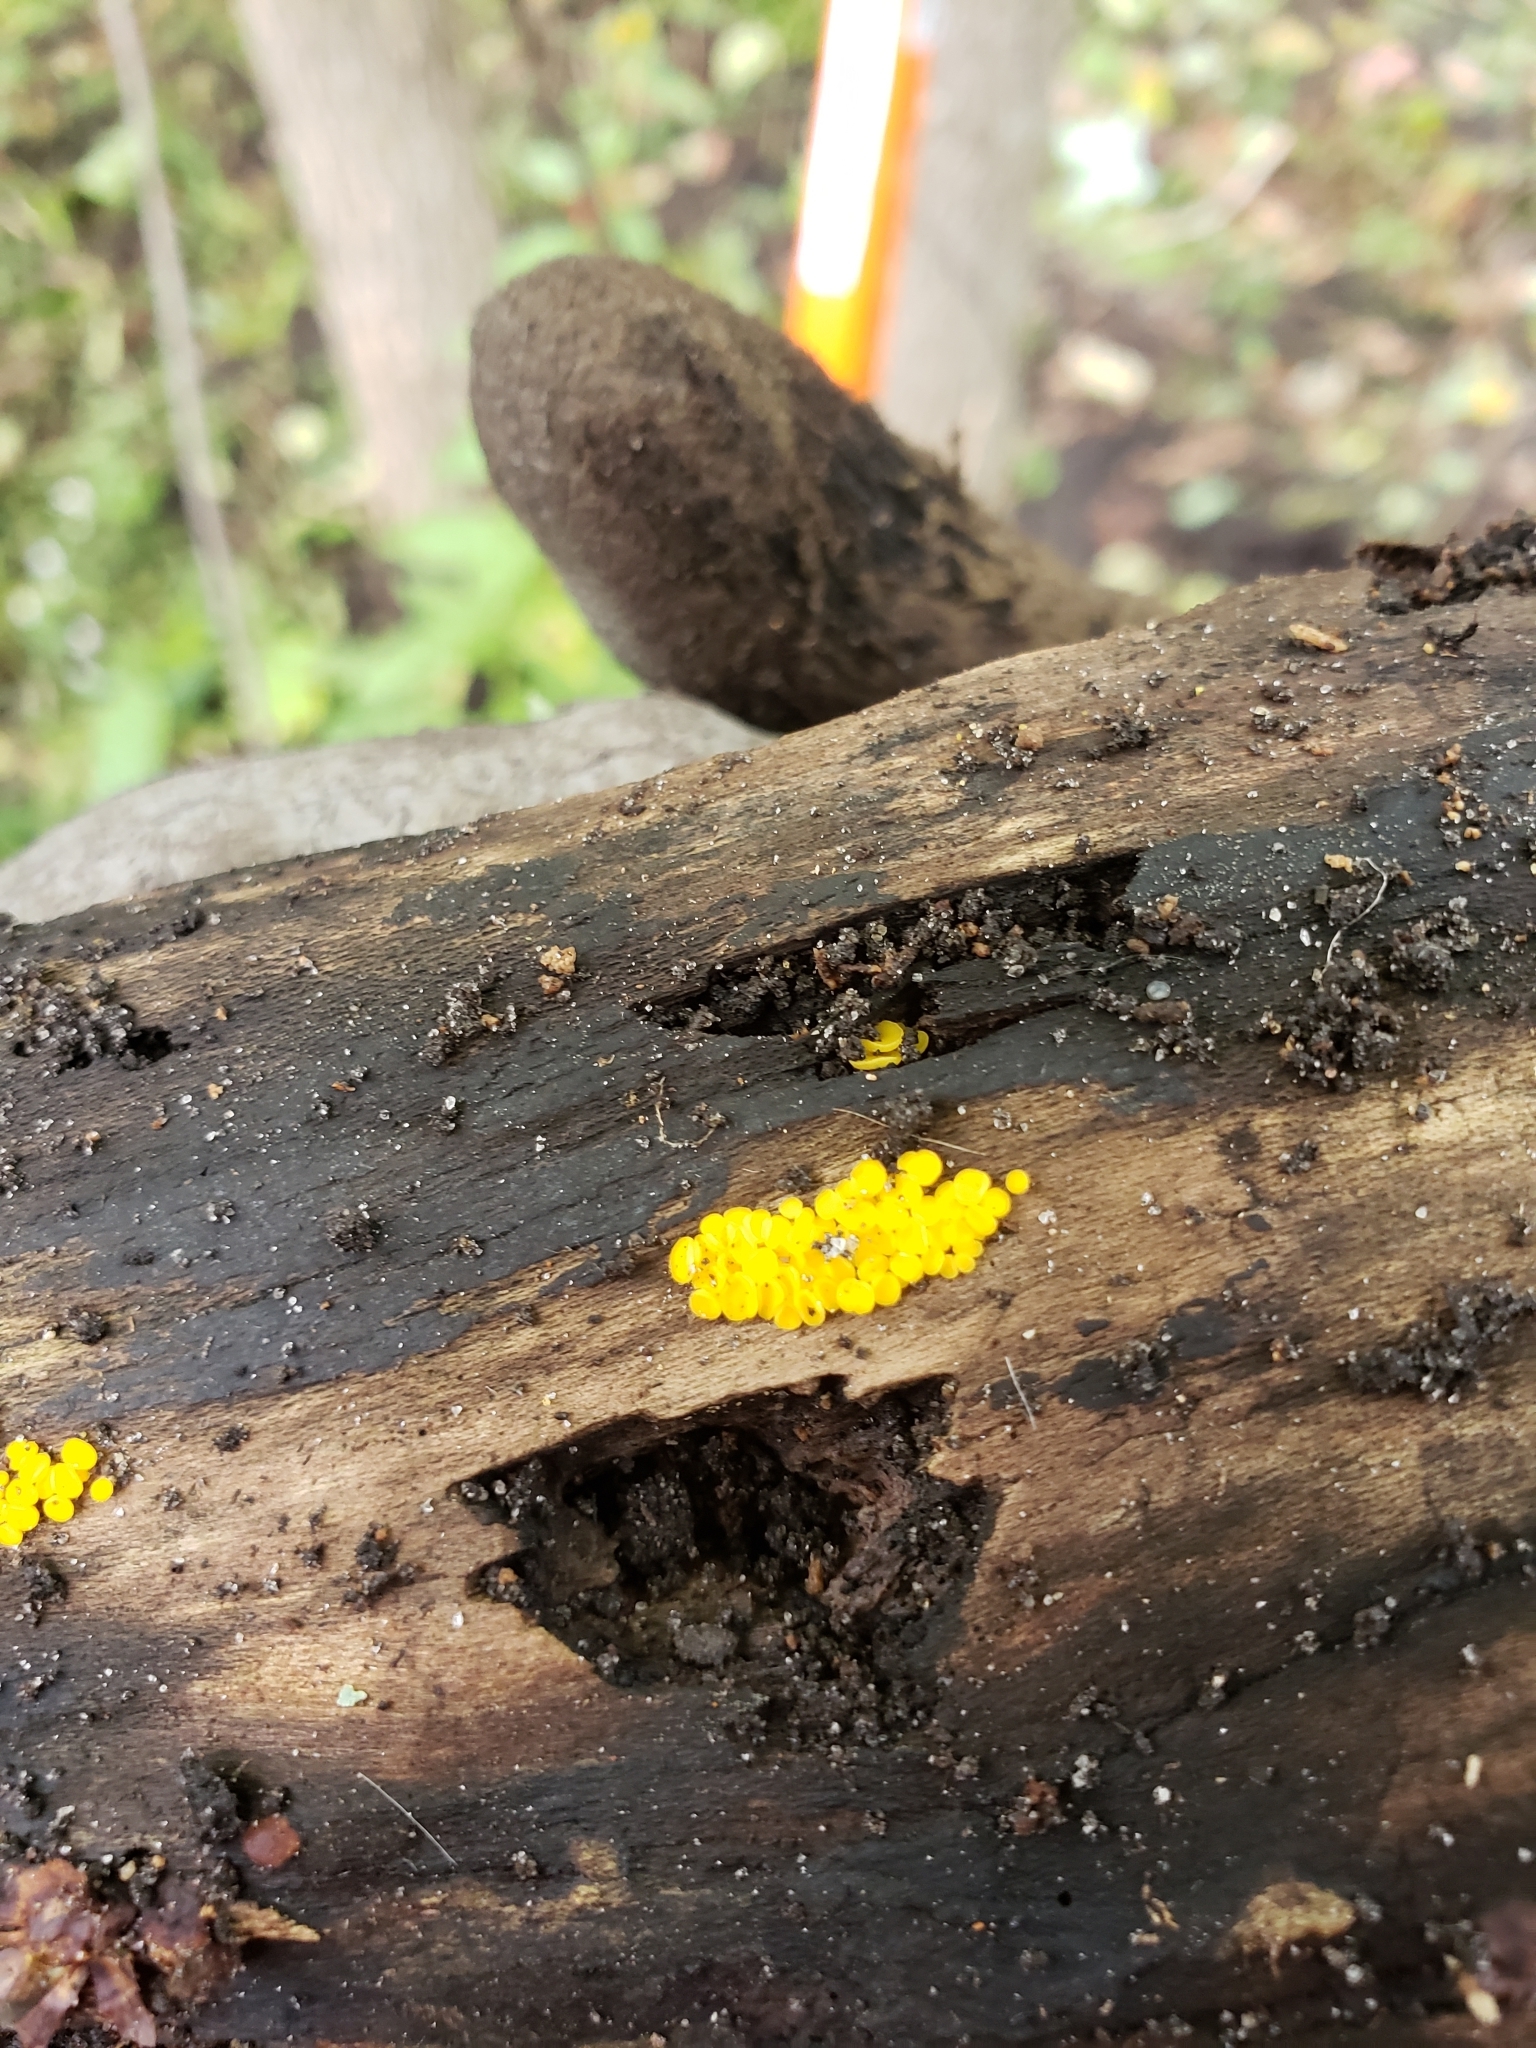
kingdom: Fungi
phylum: Ascomycota
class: Leotiomycetes
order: Helotiales
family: Pezizellaceae
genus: Calycina
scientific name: Calycina citrina
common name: Yellow fairy cups
